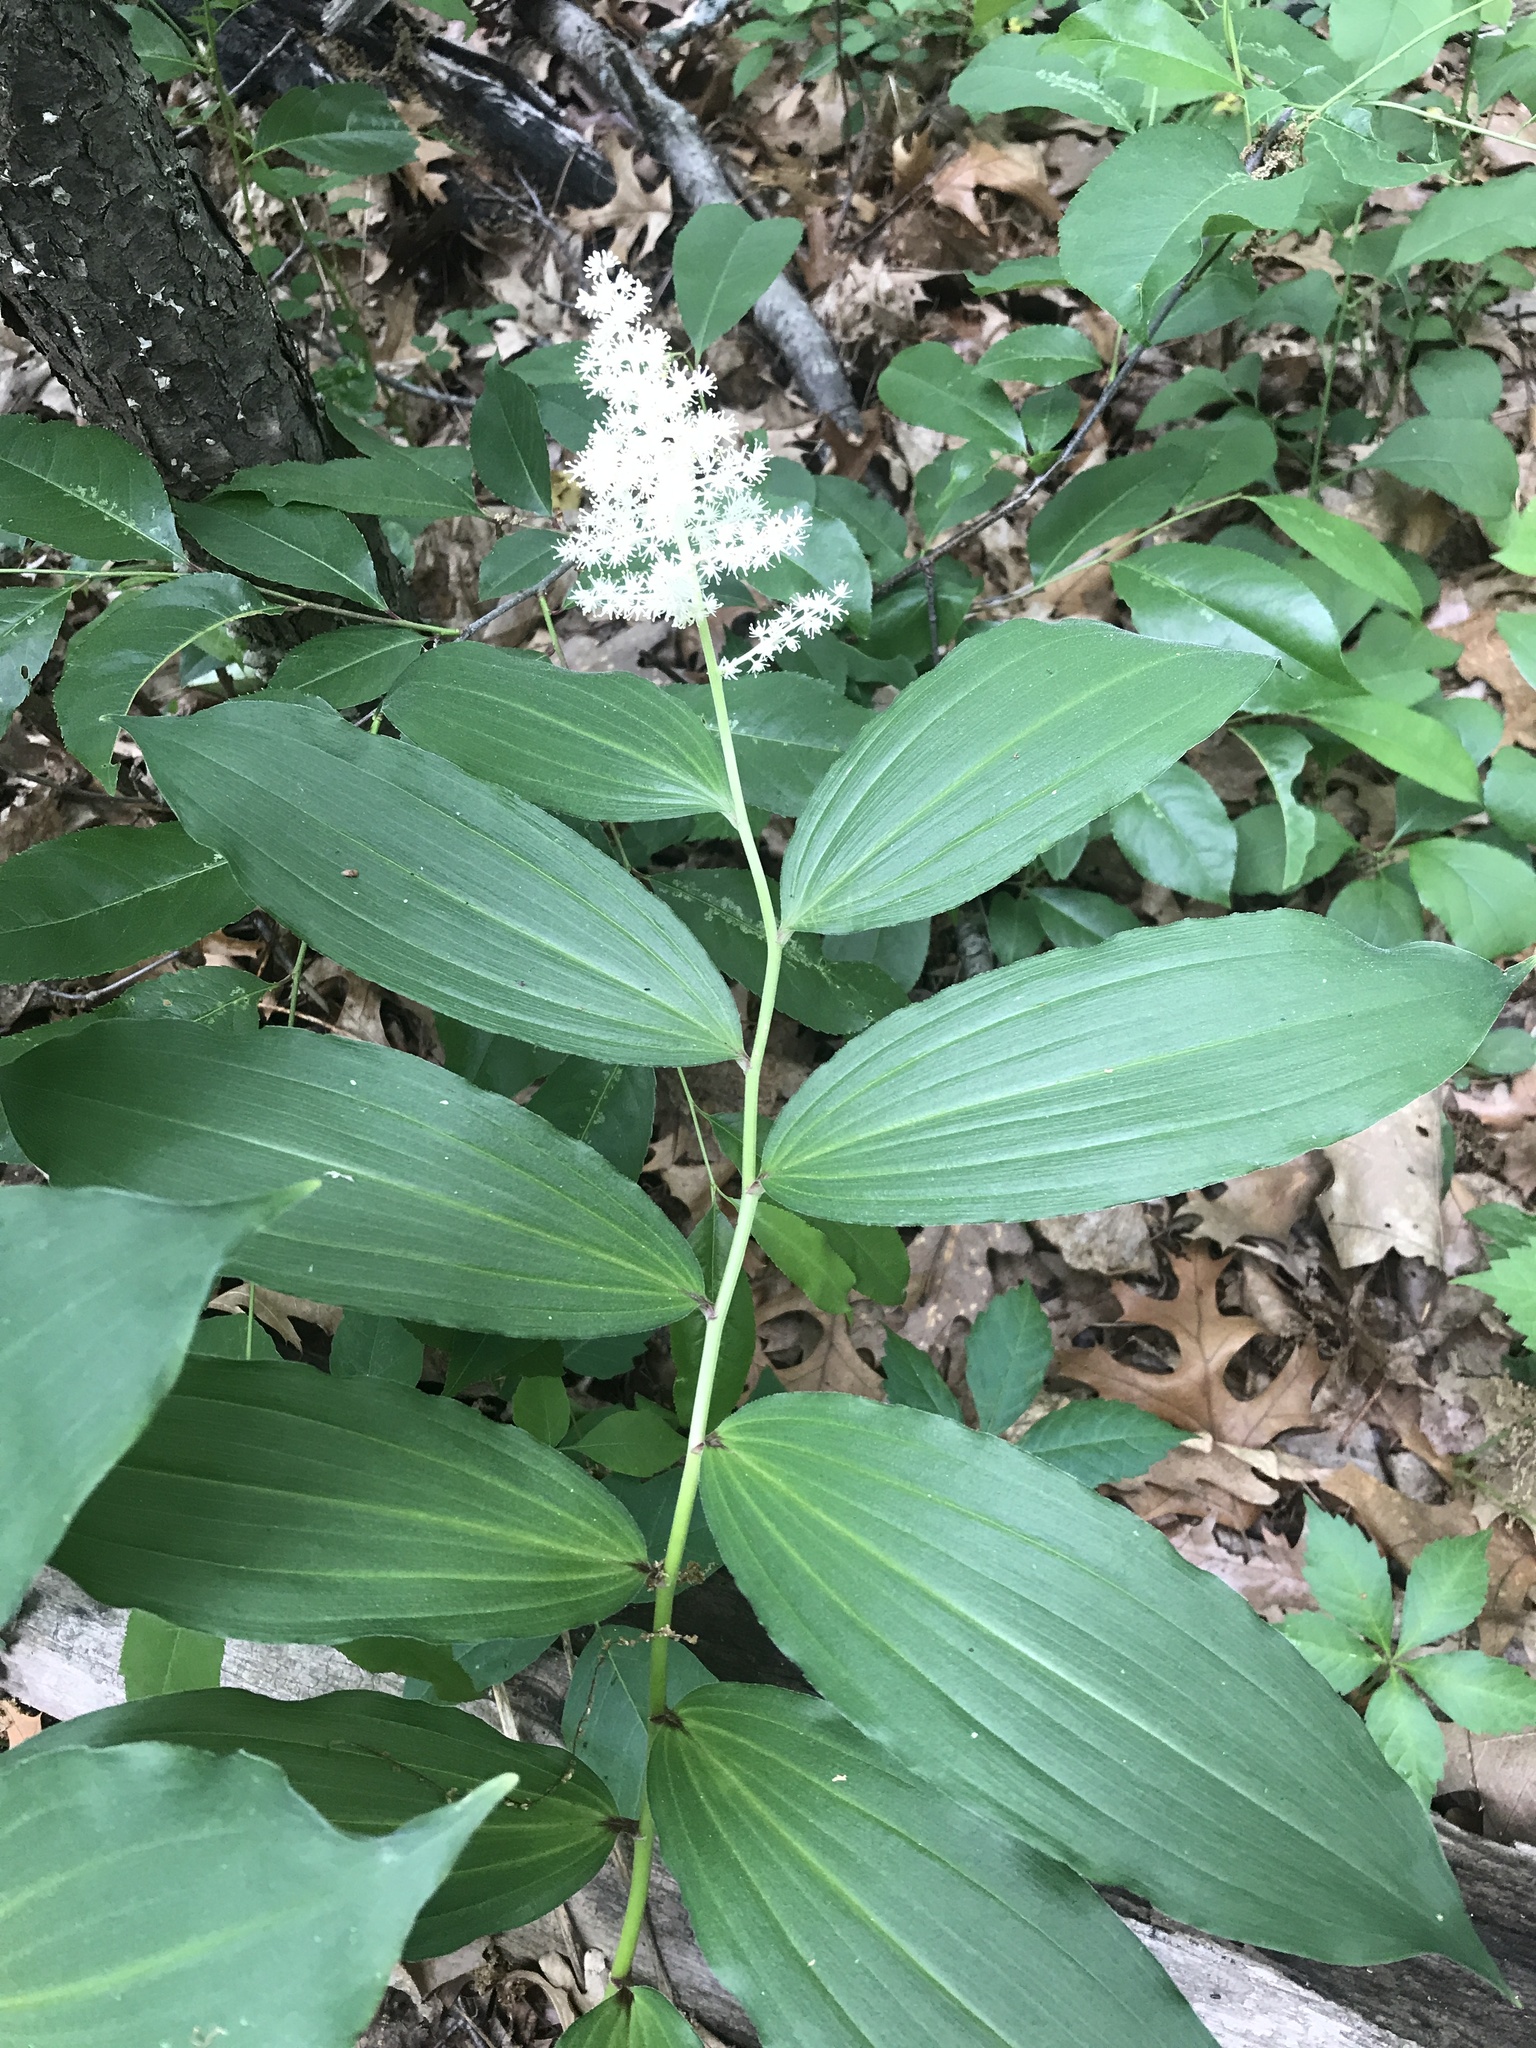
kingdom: Plantae
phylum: Tracheophyta
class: Liliopsida
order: Asparagales
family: Asparagaceae
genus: Maianthemum
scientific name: Maianthemum racemosum
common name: False spikenard
